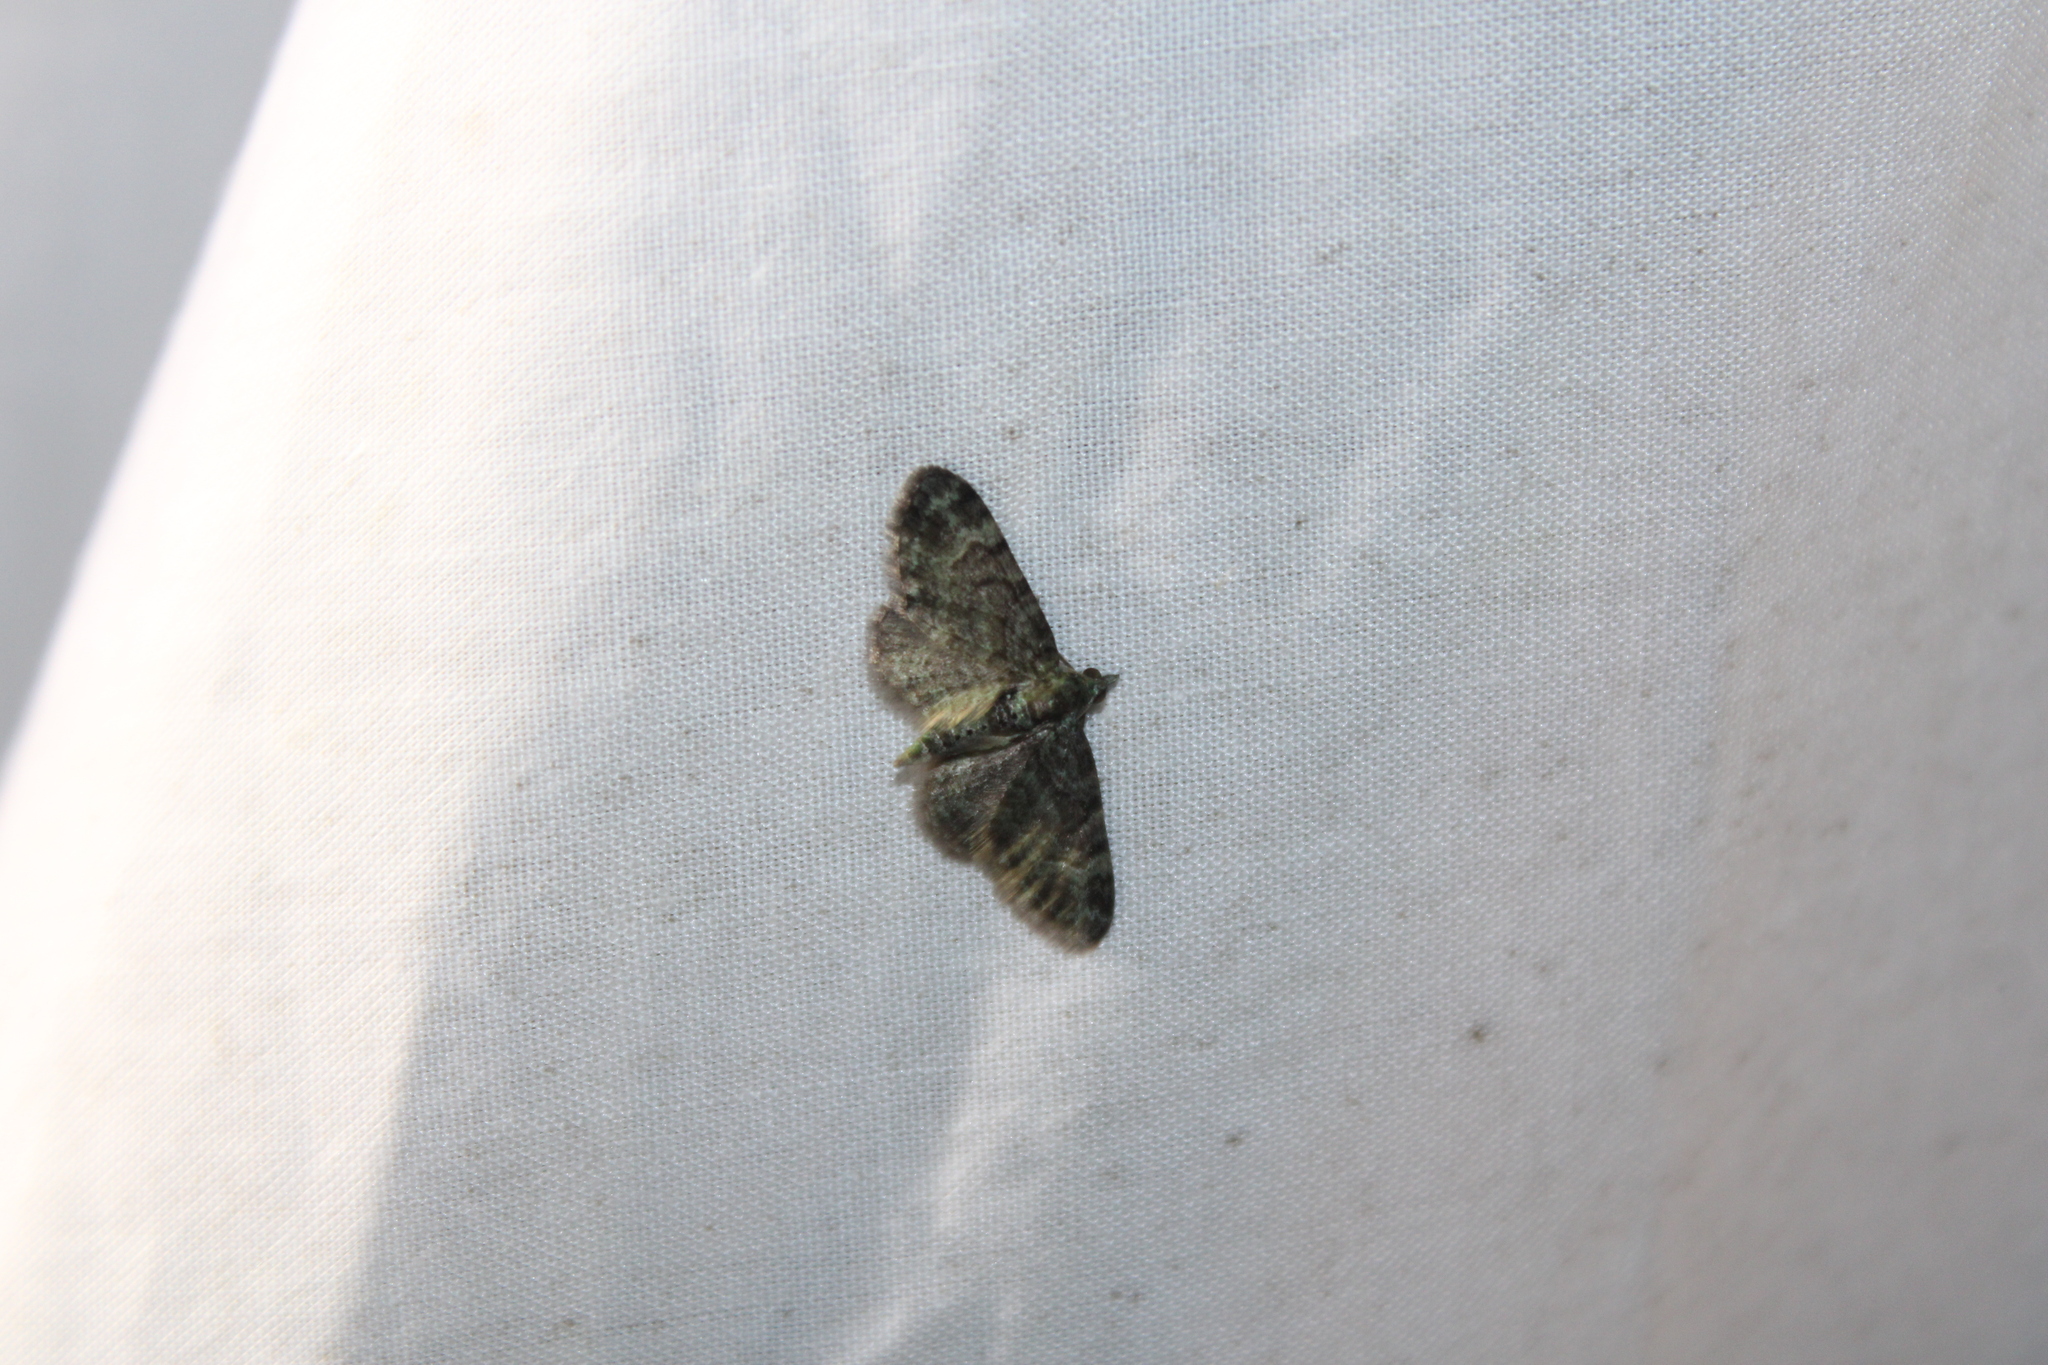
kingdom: Animalia
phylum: Arthropoda
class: Insecta
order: Lepidoptera
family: Geometridae
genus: Pasiphila
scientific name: Pasiphila rectangulata
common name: Green pug
